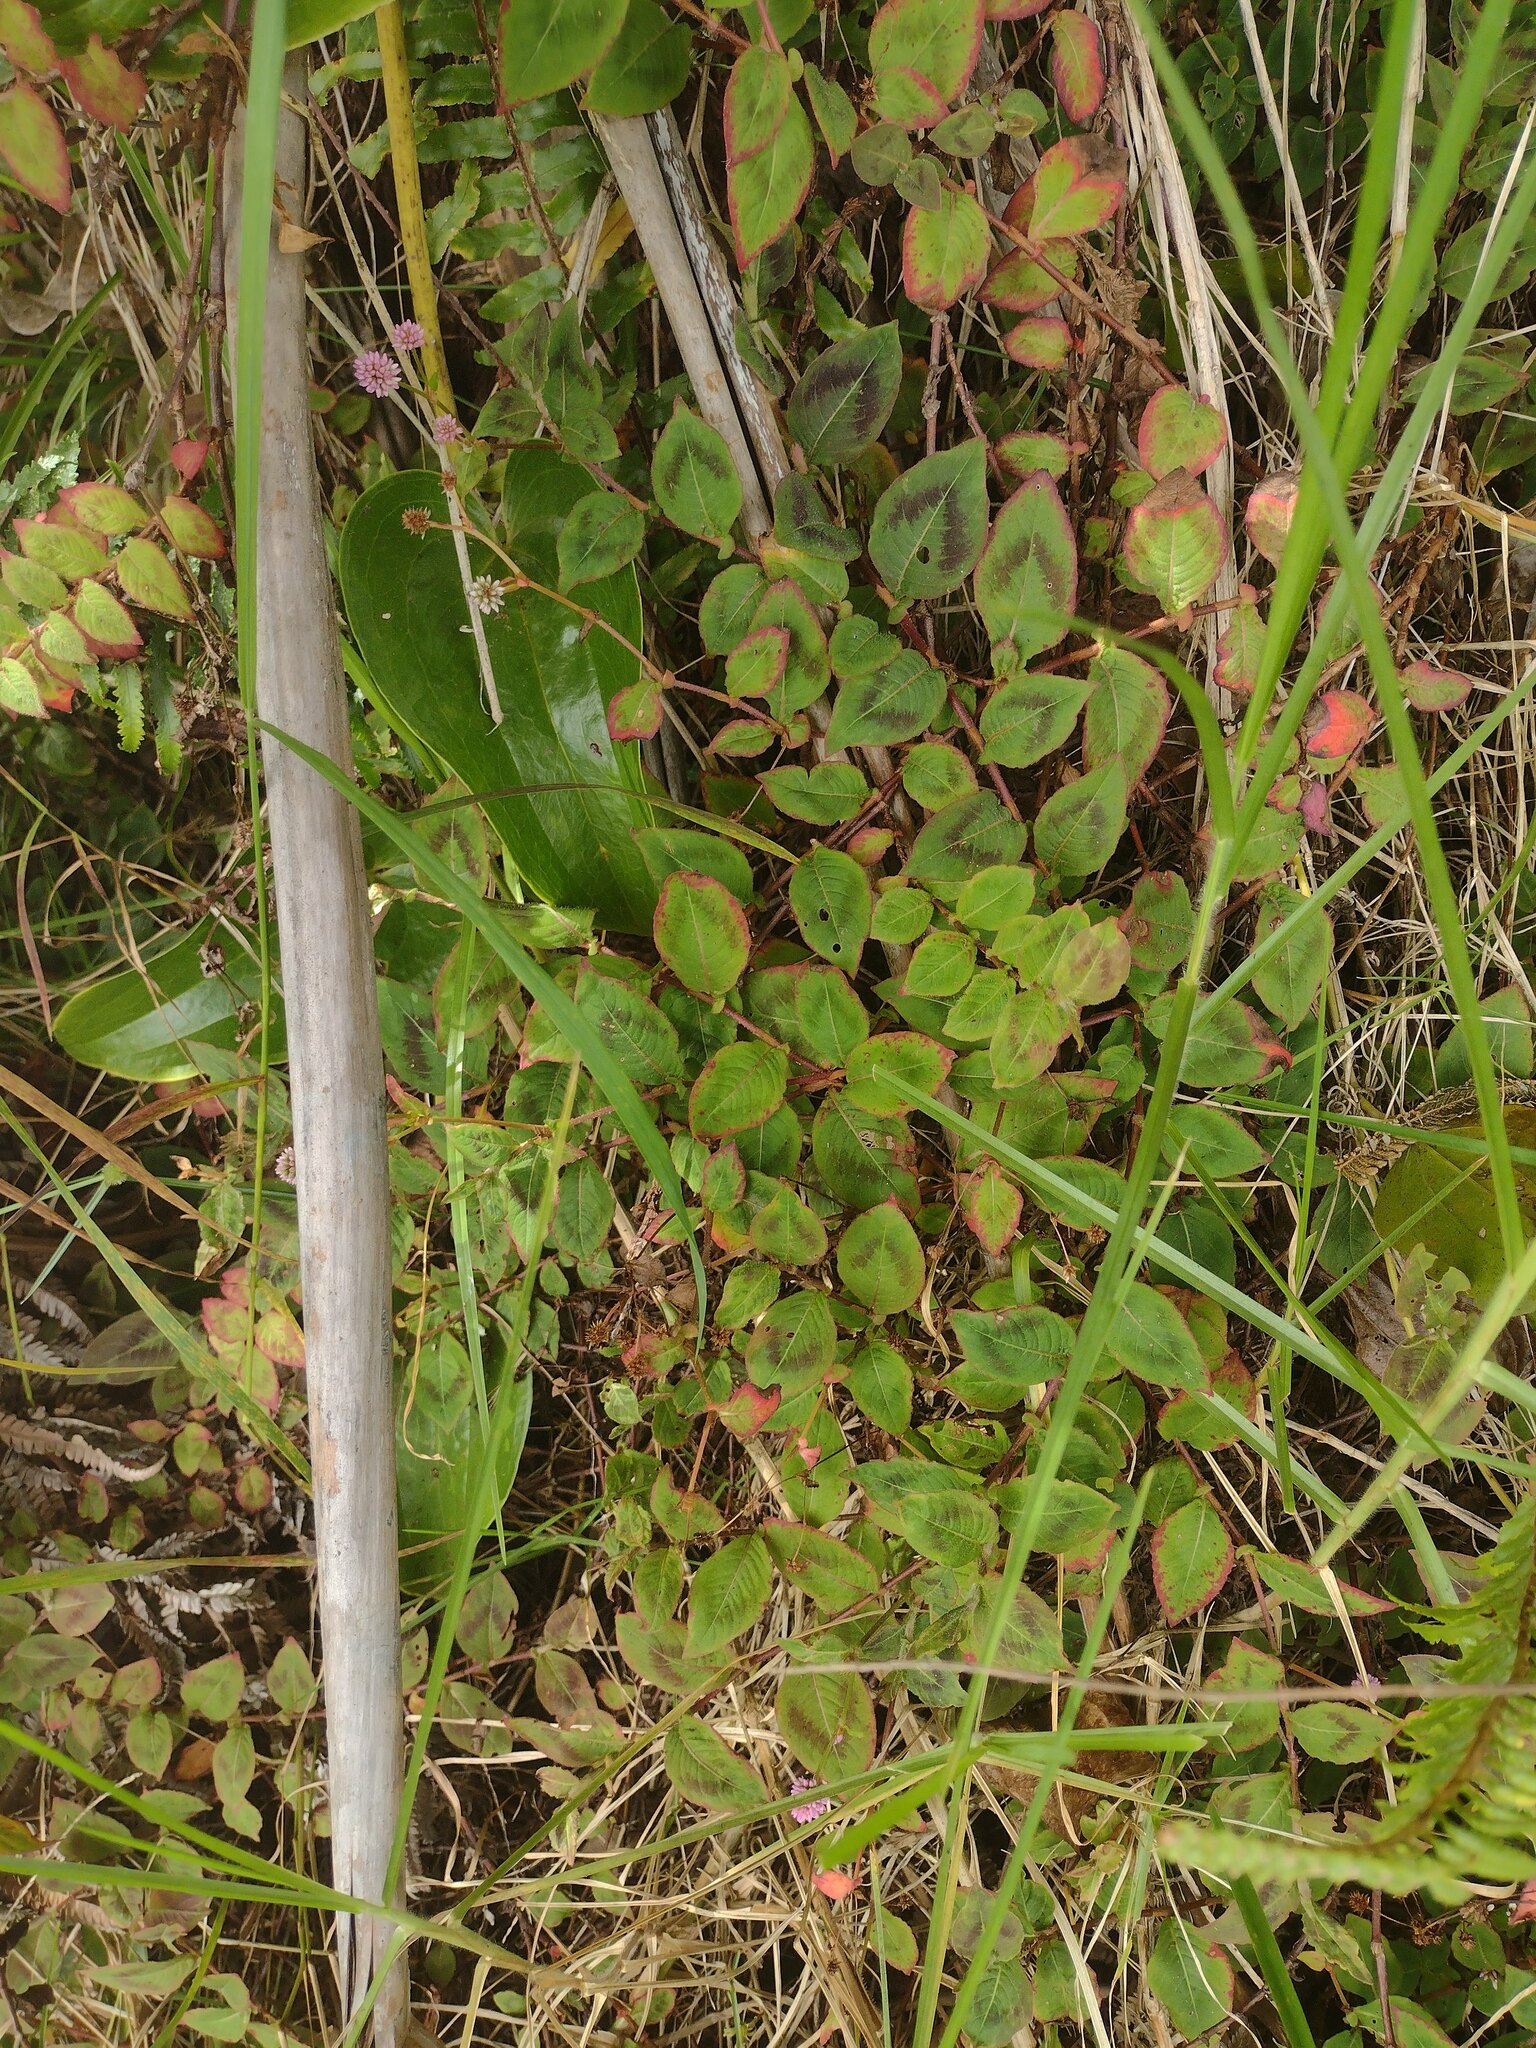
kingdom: Plantae
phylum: Tracheophyta
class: Magnoliopsida
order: Caryophyllales
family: Polygonaceae
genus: Persicaria
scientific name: Persicaria capitata
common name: Pinkhead smartweed
